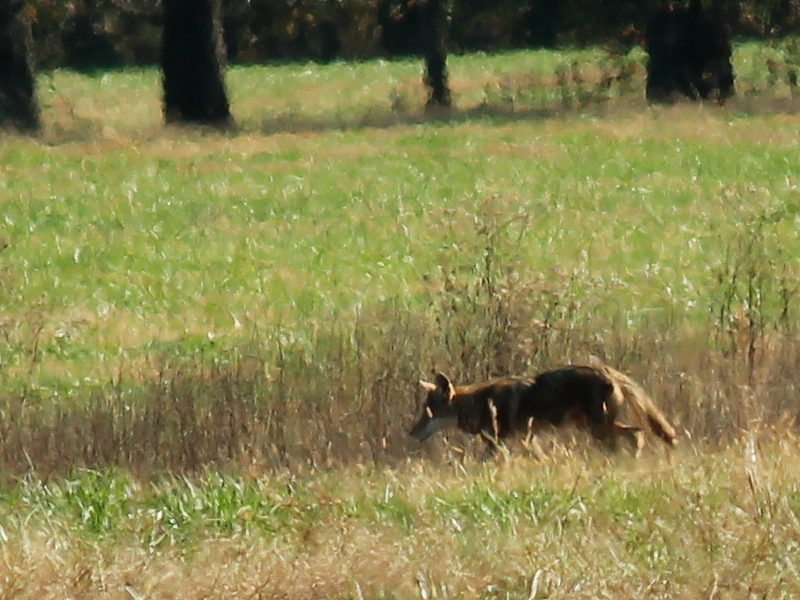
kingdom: Animalia
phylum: Chordata
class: Mammalia
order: Carnivora
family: Canidae
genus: Canis
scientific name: Canis latrans
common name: Coyote
